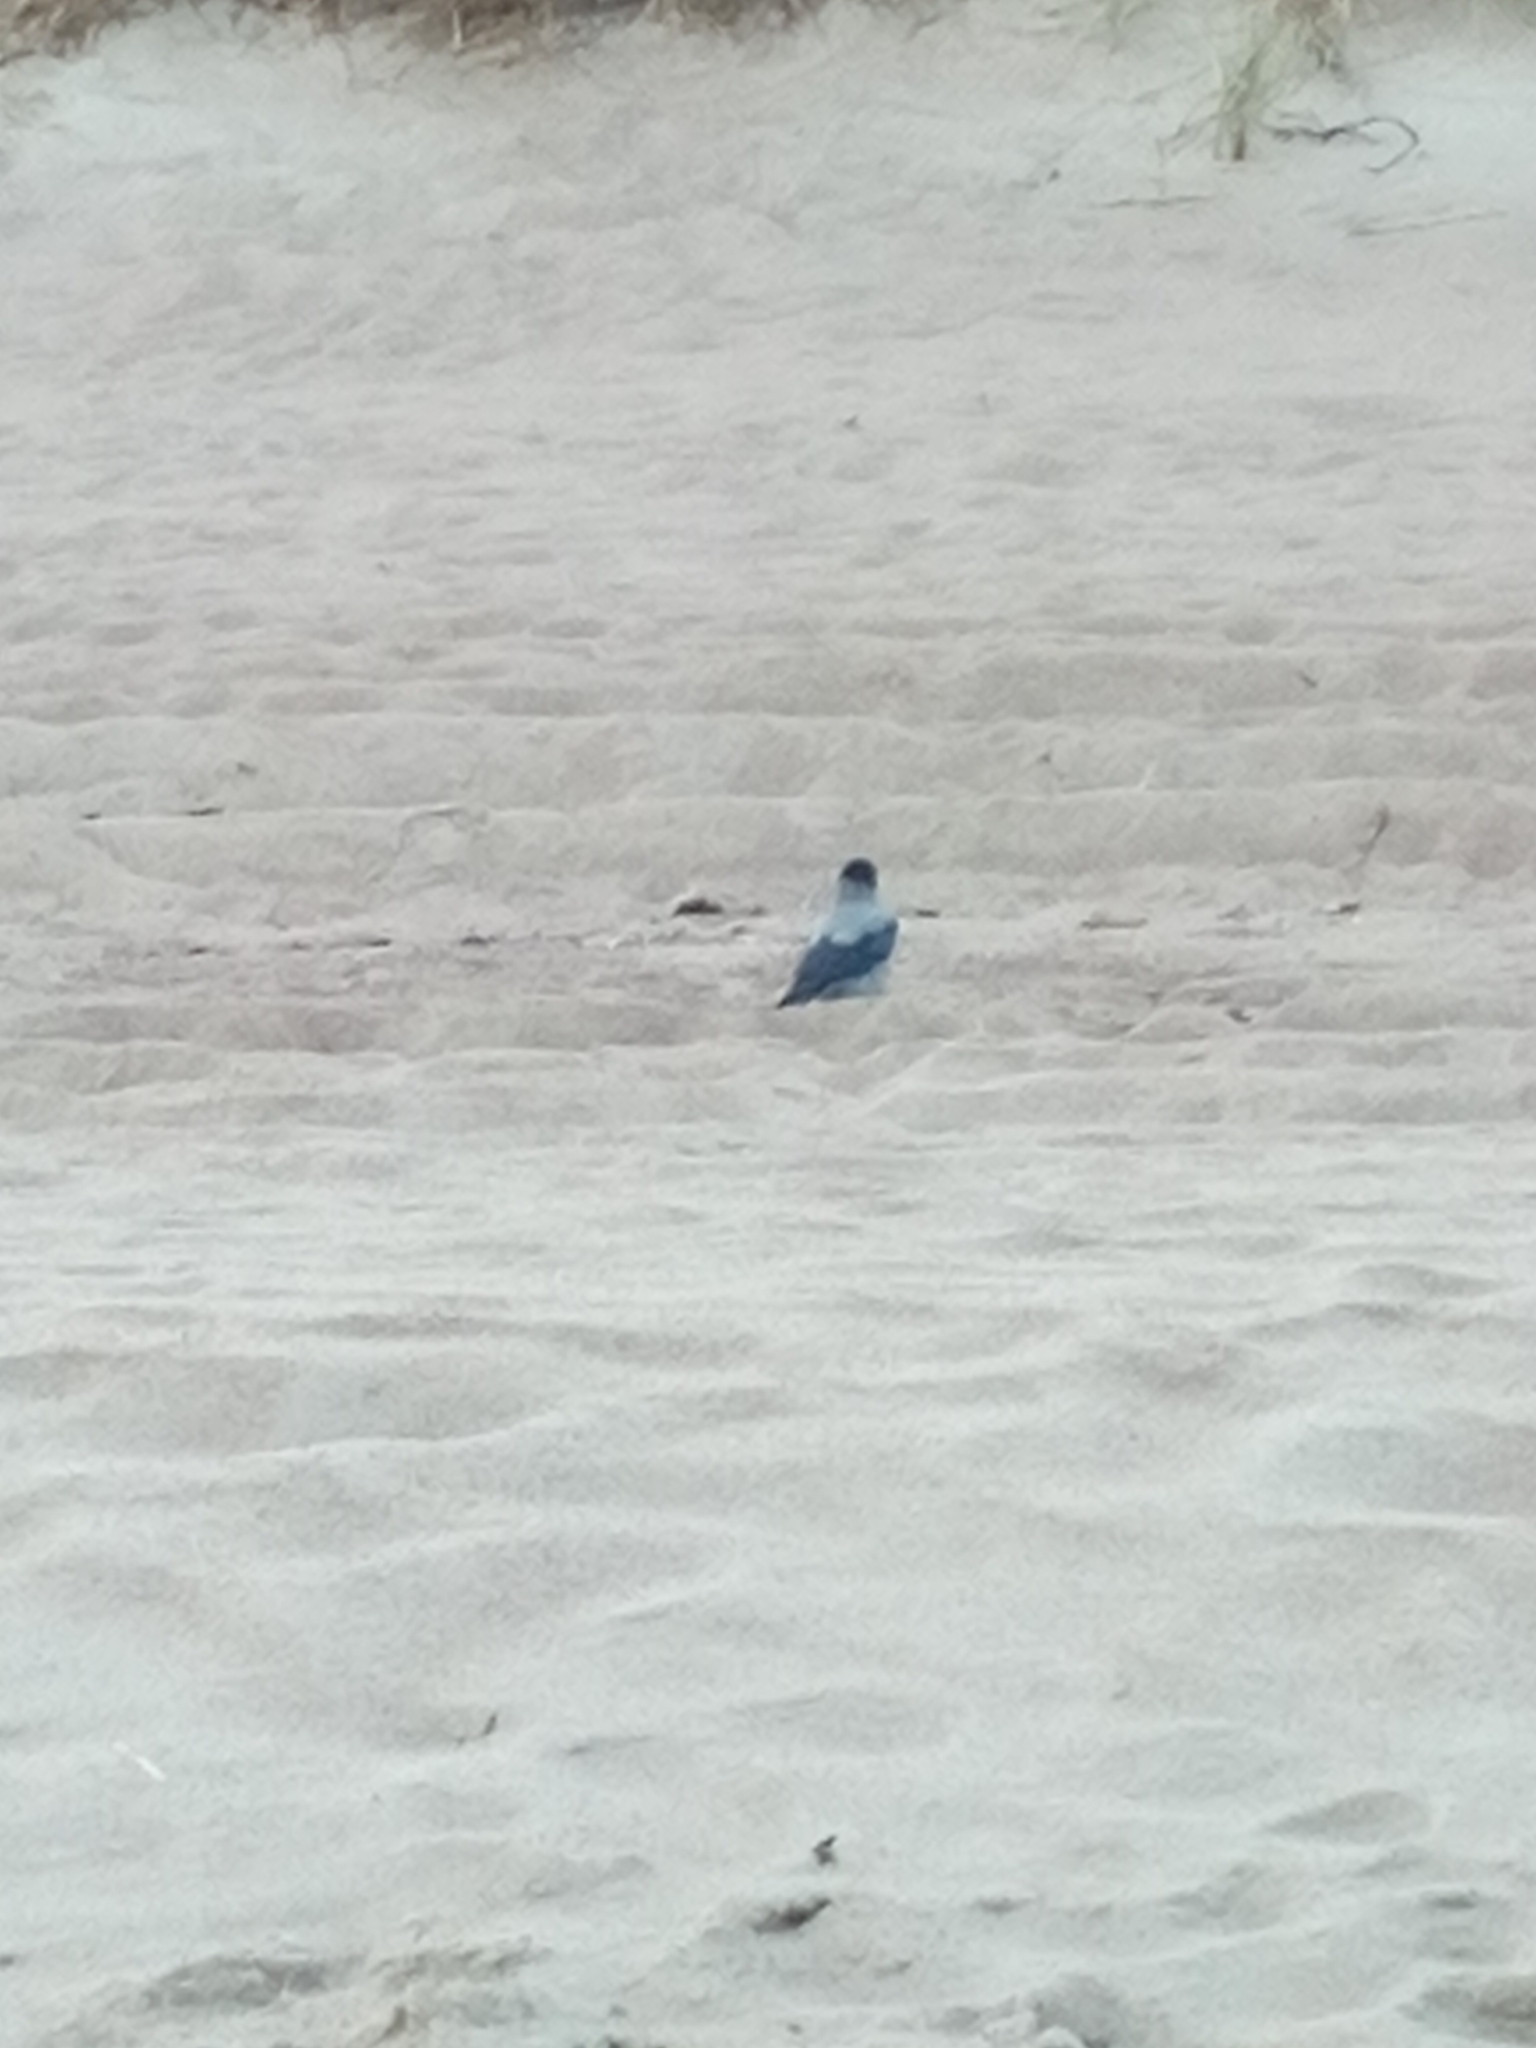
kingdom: Animalia
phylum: Chordata
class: Aves
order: Passeriformes
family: Corvidae
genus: Corvus
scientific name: Corvus cornix
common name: Hooded crow
